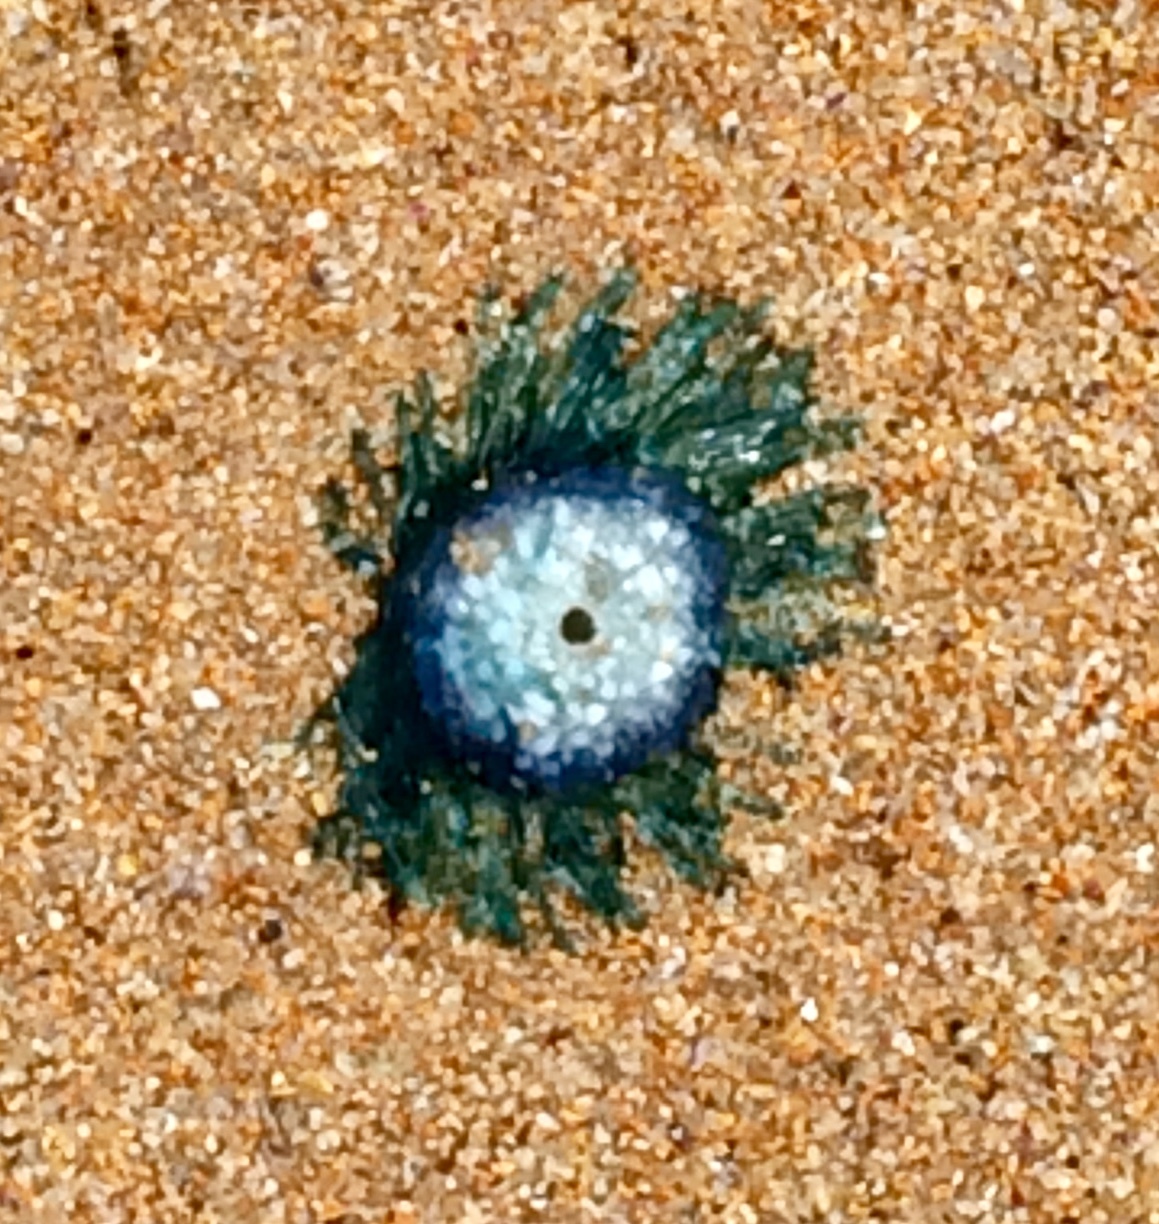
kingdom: Animalia
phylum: Cnidaria
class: Hydrozoa
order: Anthoathecata
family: Porpitidae
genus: Porpita
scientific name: Porpita porpita
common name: Blue button
